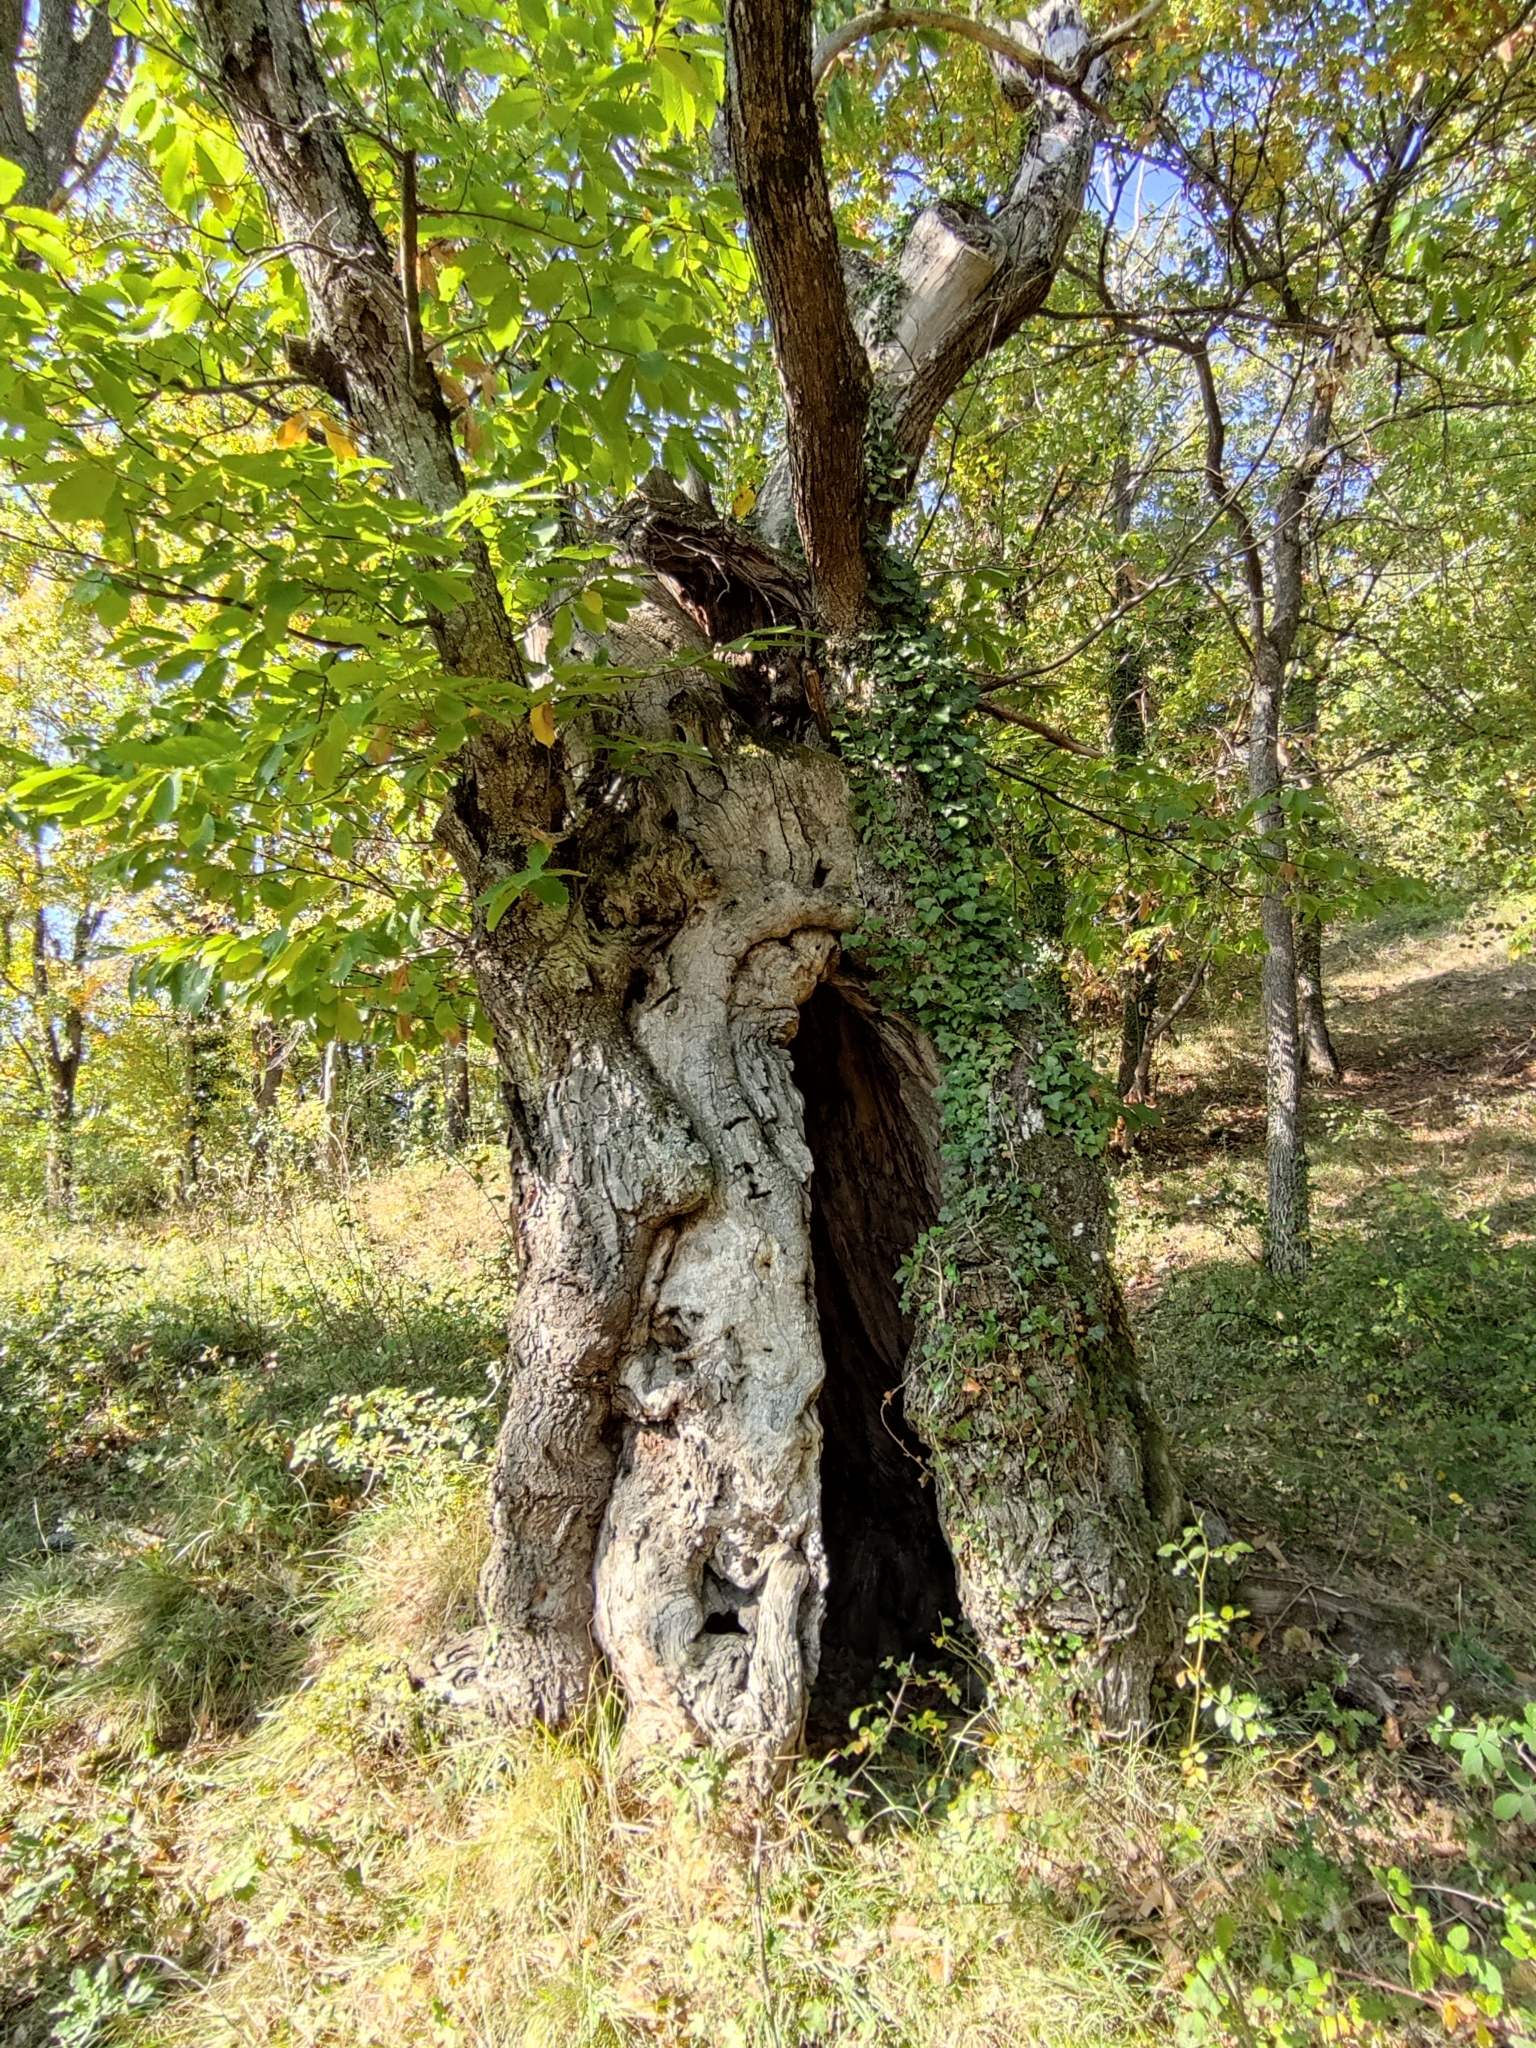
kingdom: Plantae
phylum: Tracheophyta
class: Magnoliopsida
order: Fagales
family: Fagaceae
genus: Castanea
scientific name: Castanea sativa
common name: Sweet chestnut
